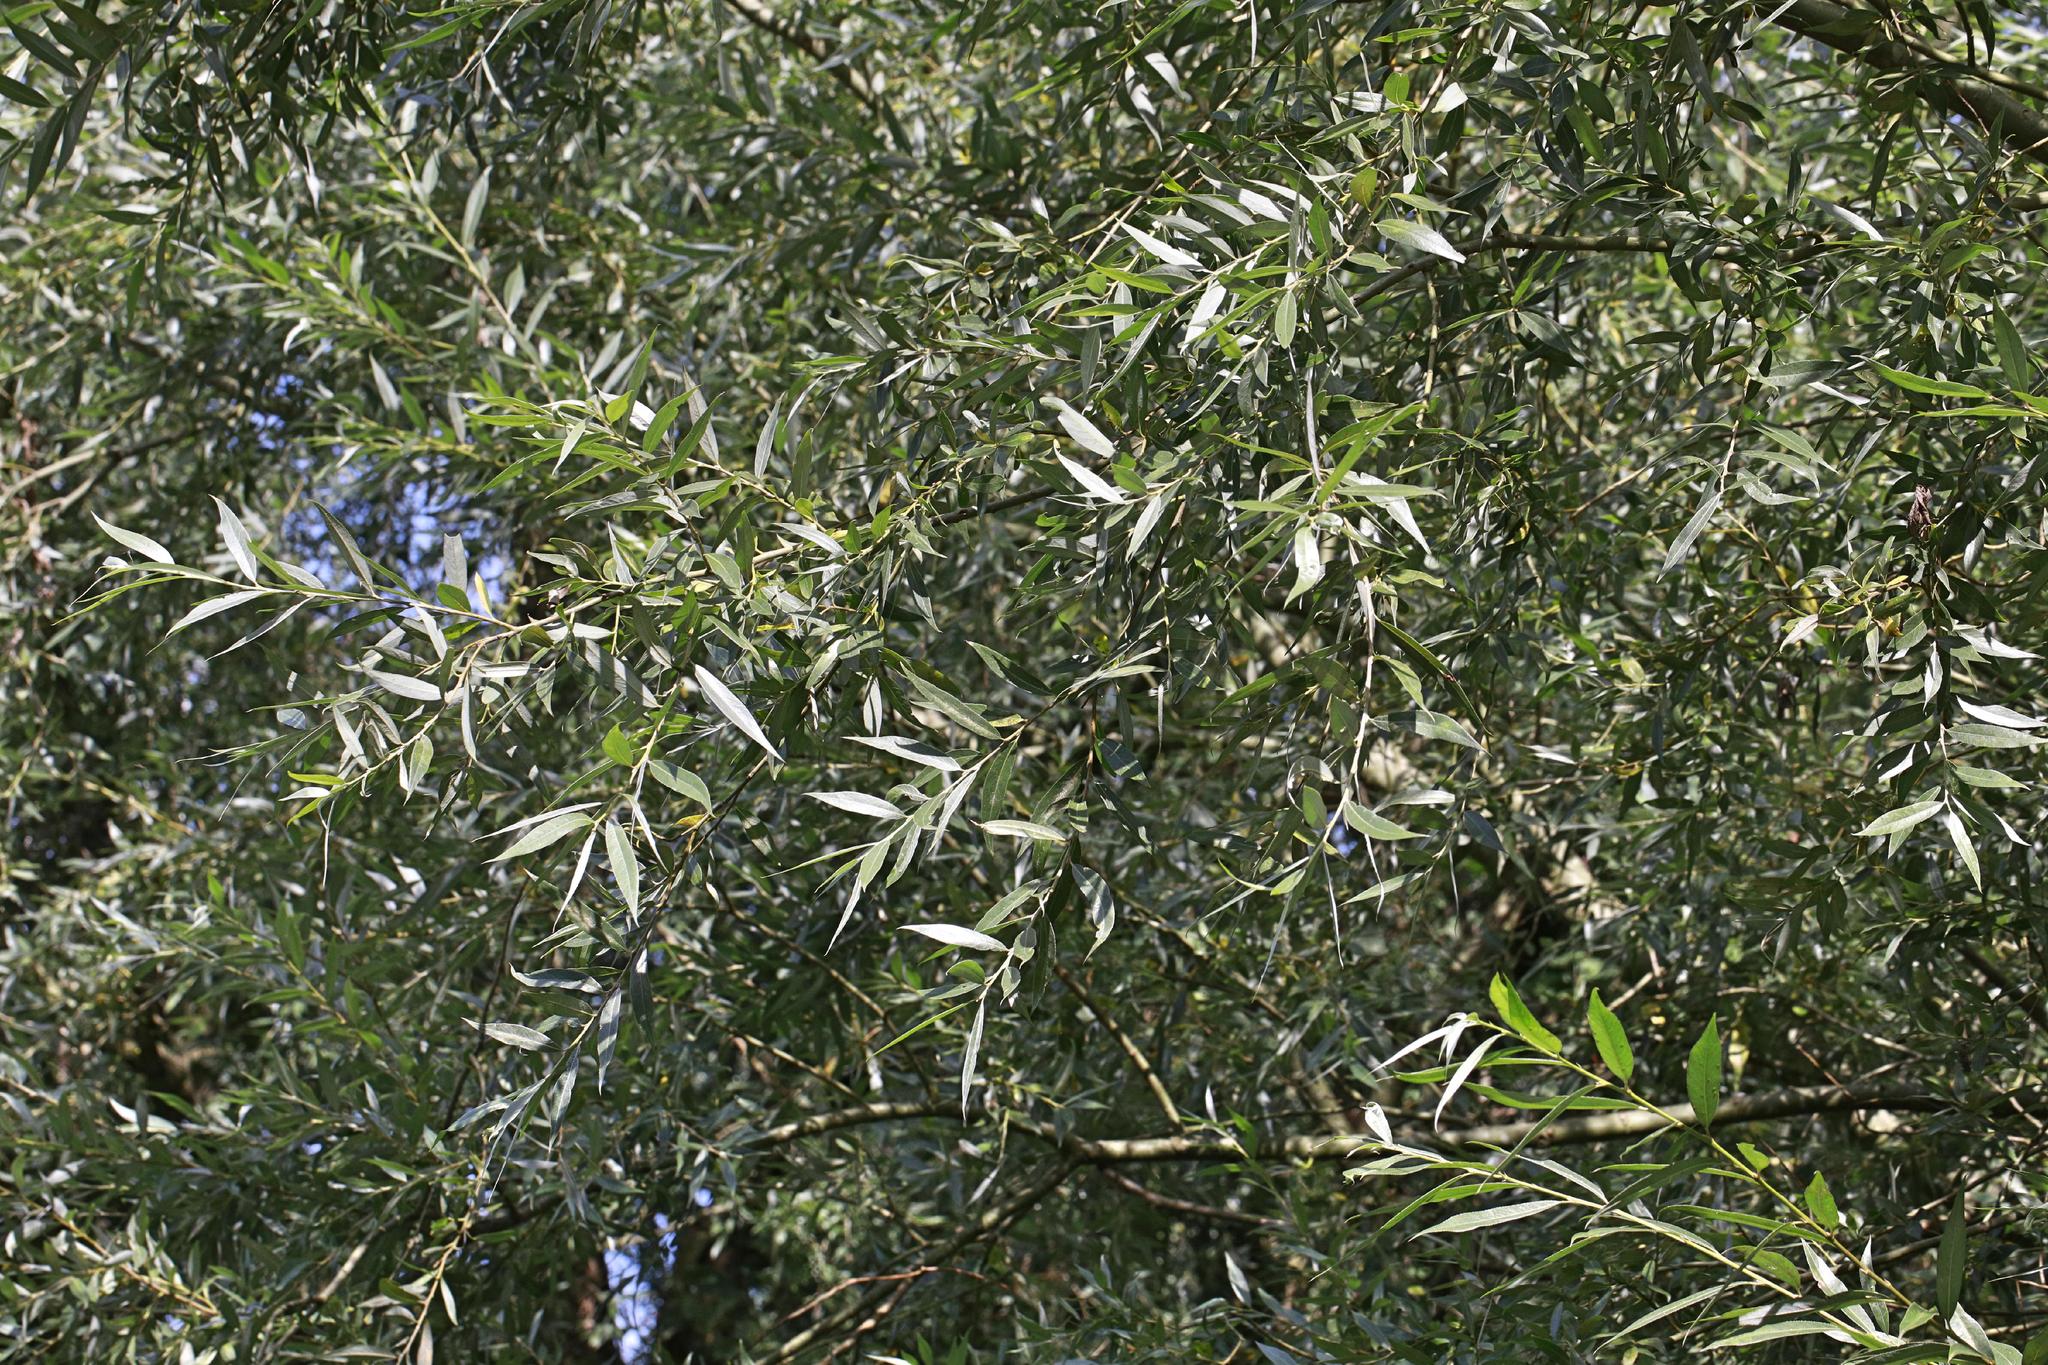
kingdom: Plantae
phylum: Tracheophyta
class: Magnoliopsida
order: Malpighiales
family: Salicaceae
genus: Salix
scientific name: Salix alba
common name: White willow
